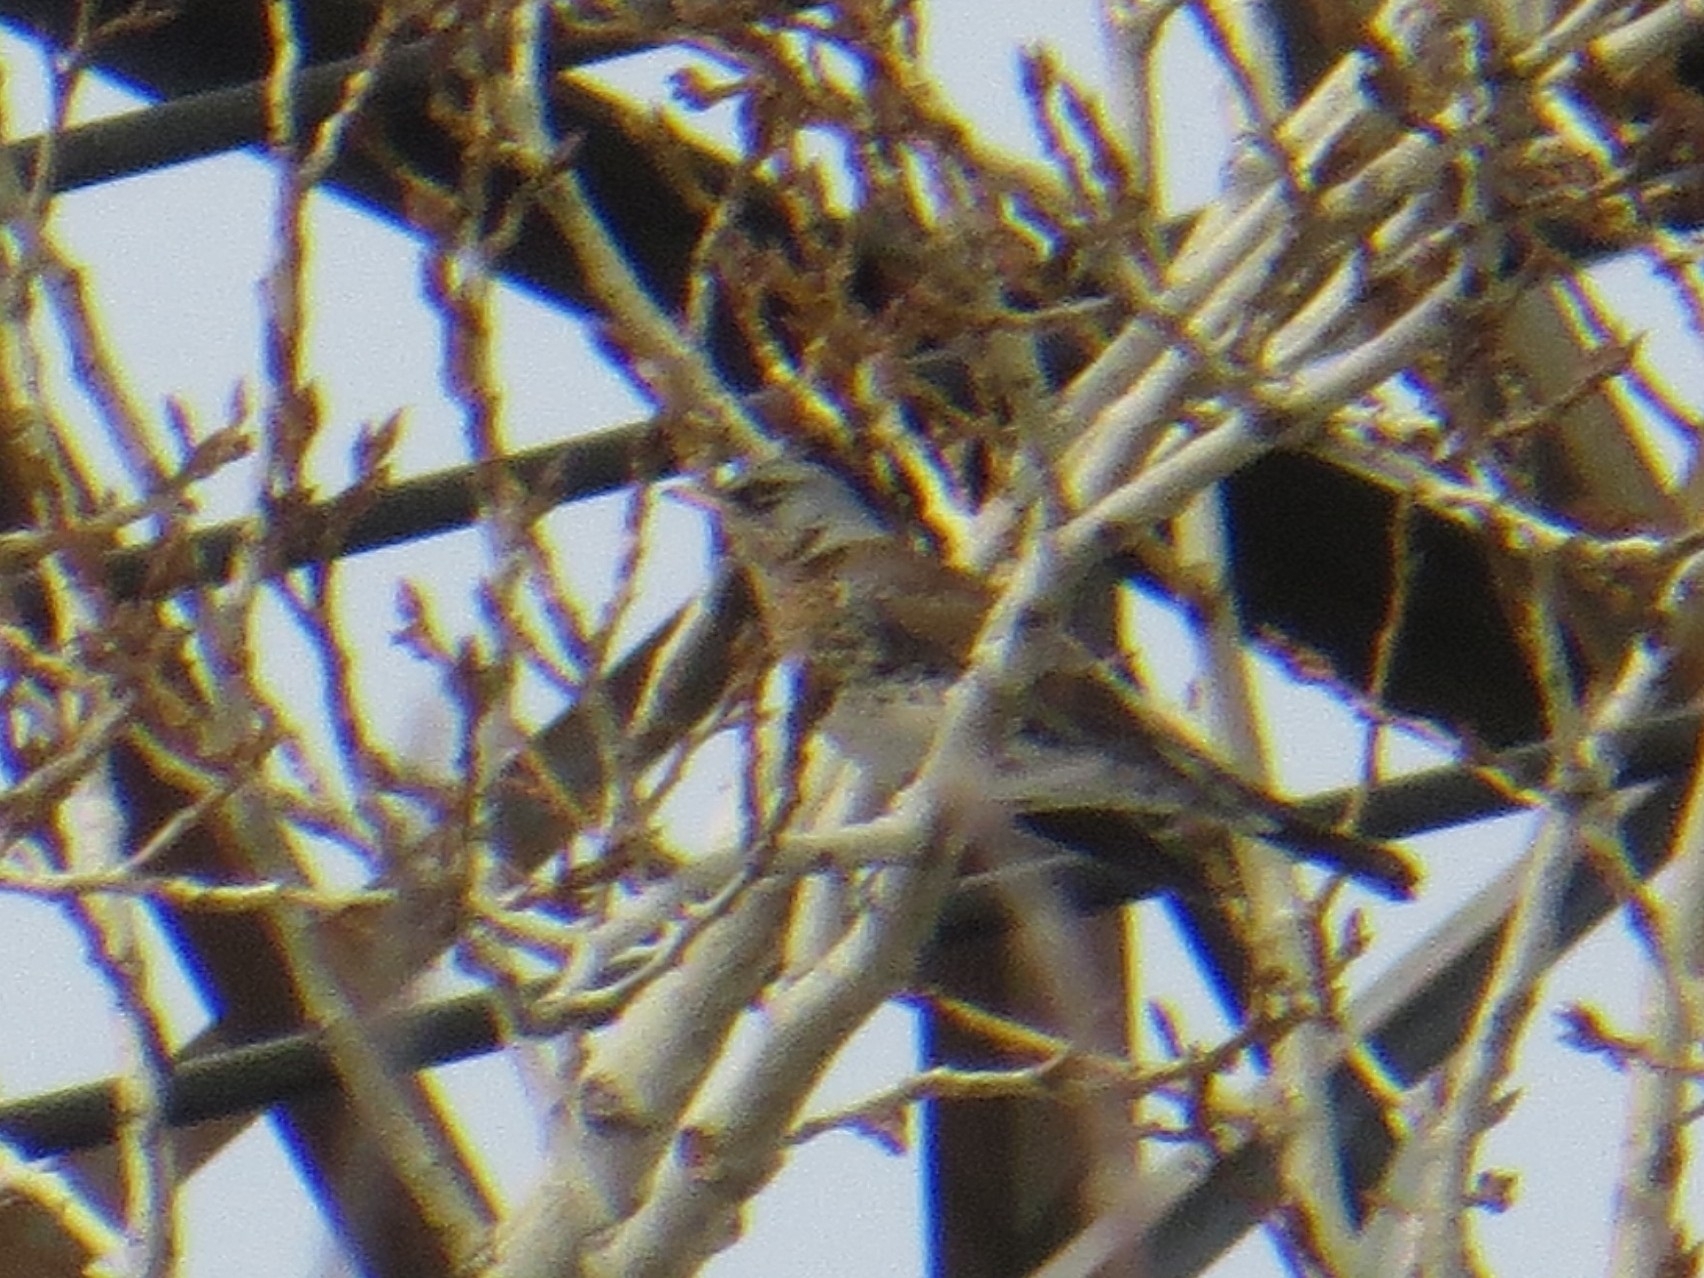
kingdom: Animalia
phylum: Chordata
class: Aves
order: Passeriformes
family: Turdidae
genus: Turdus
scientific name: Turdus pilaris
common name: Fieldfare
